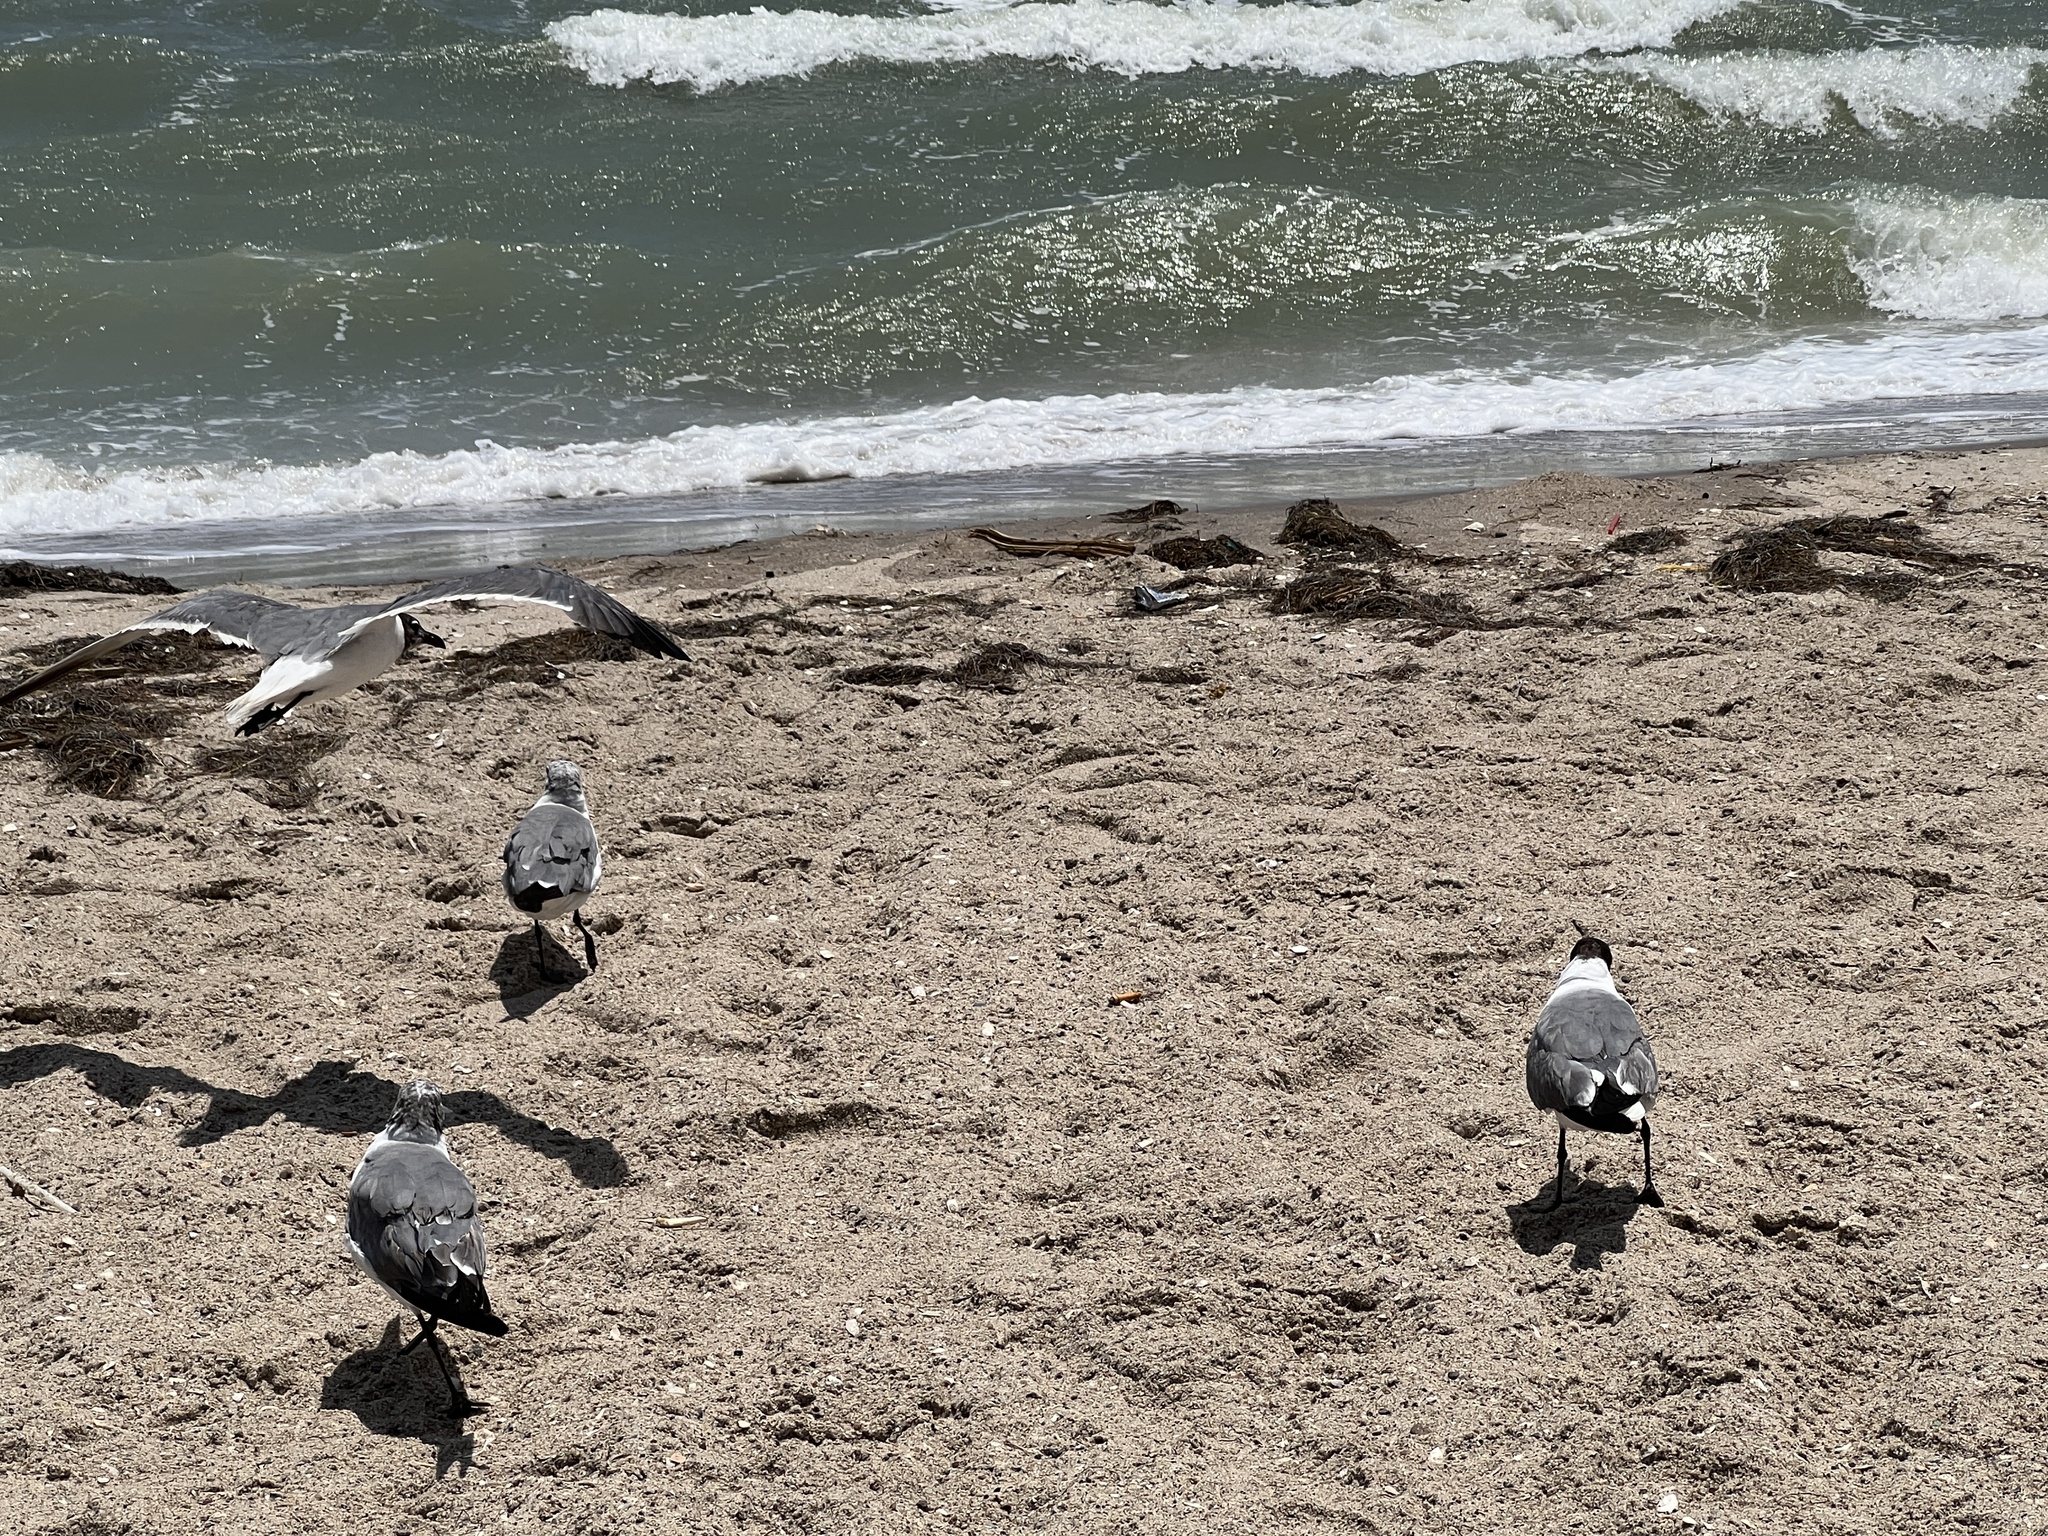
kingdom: Animalia
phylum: Chordata
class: Aves
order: Charadriiformes
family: Laridae
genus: Leucophaeus
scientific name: Leucophaeus atricilla
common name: Laughing gull
